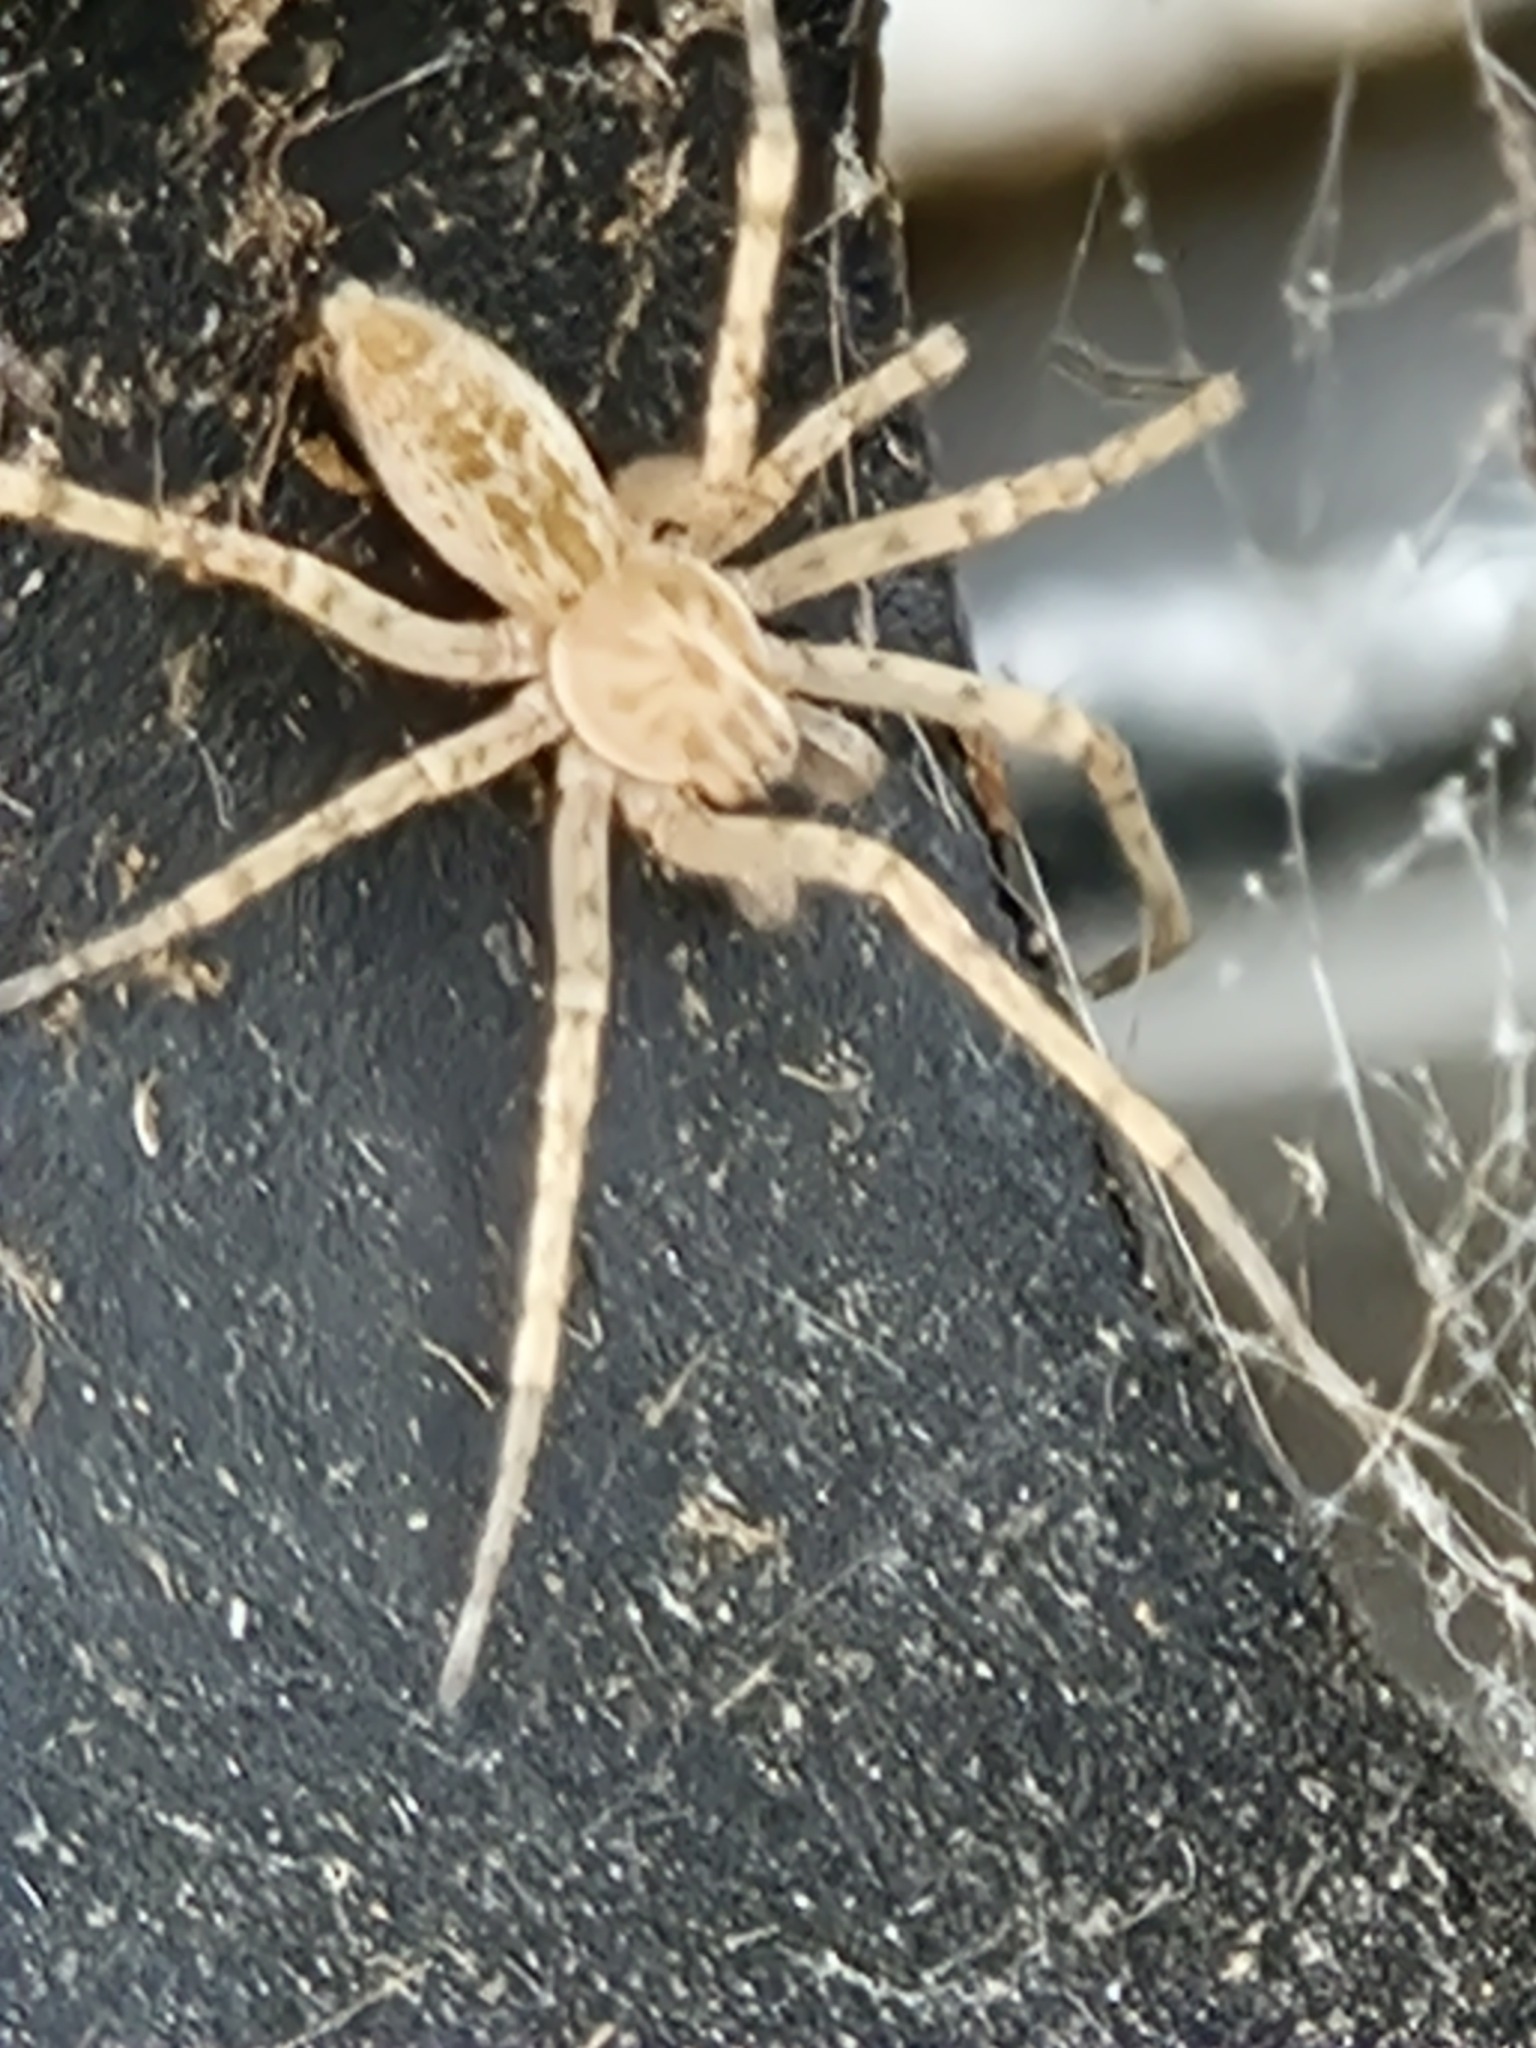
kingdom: Animalia
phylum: Arthropoda
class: Arachnida
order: Araneae
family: Anyphaenidae
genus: Anyphaena
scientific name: Anyphaena numida
